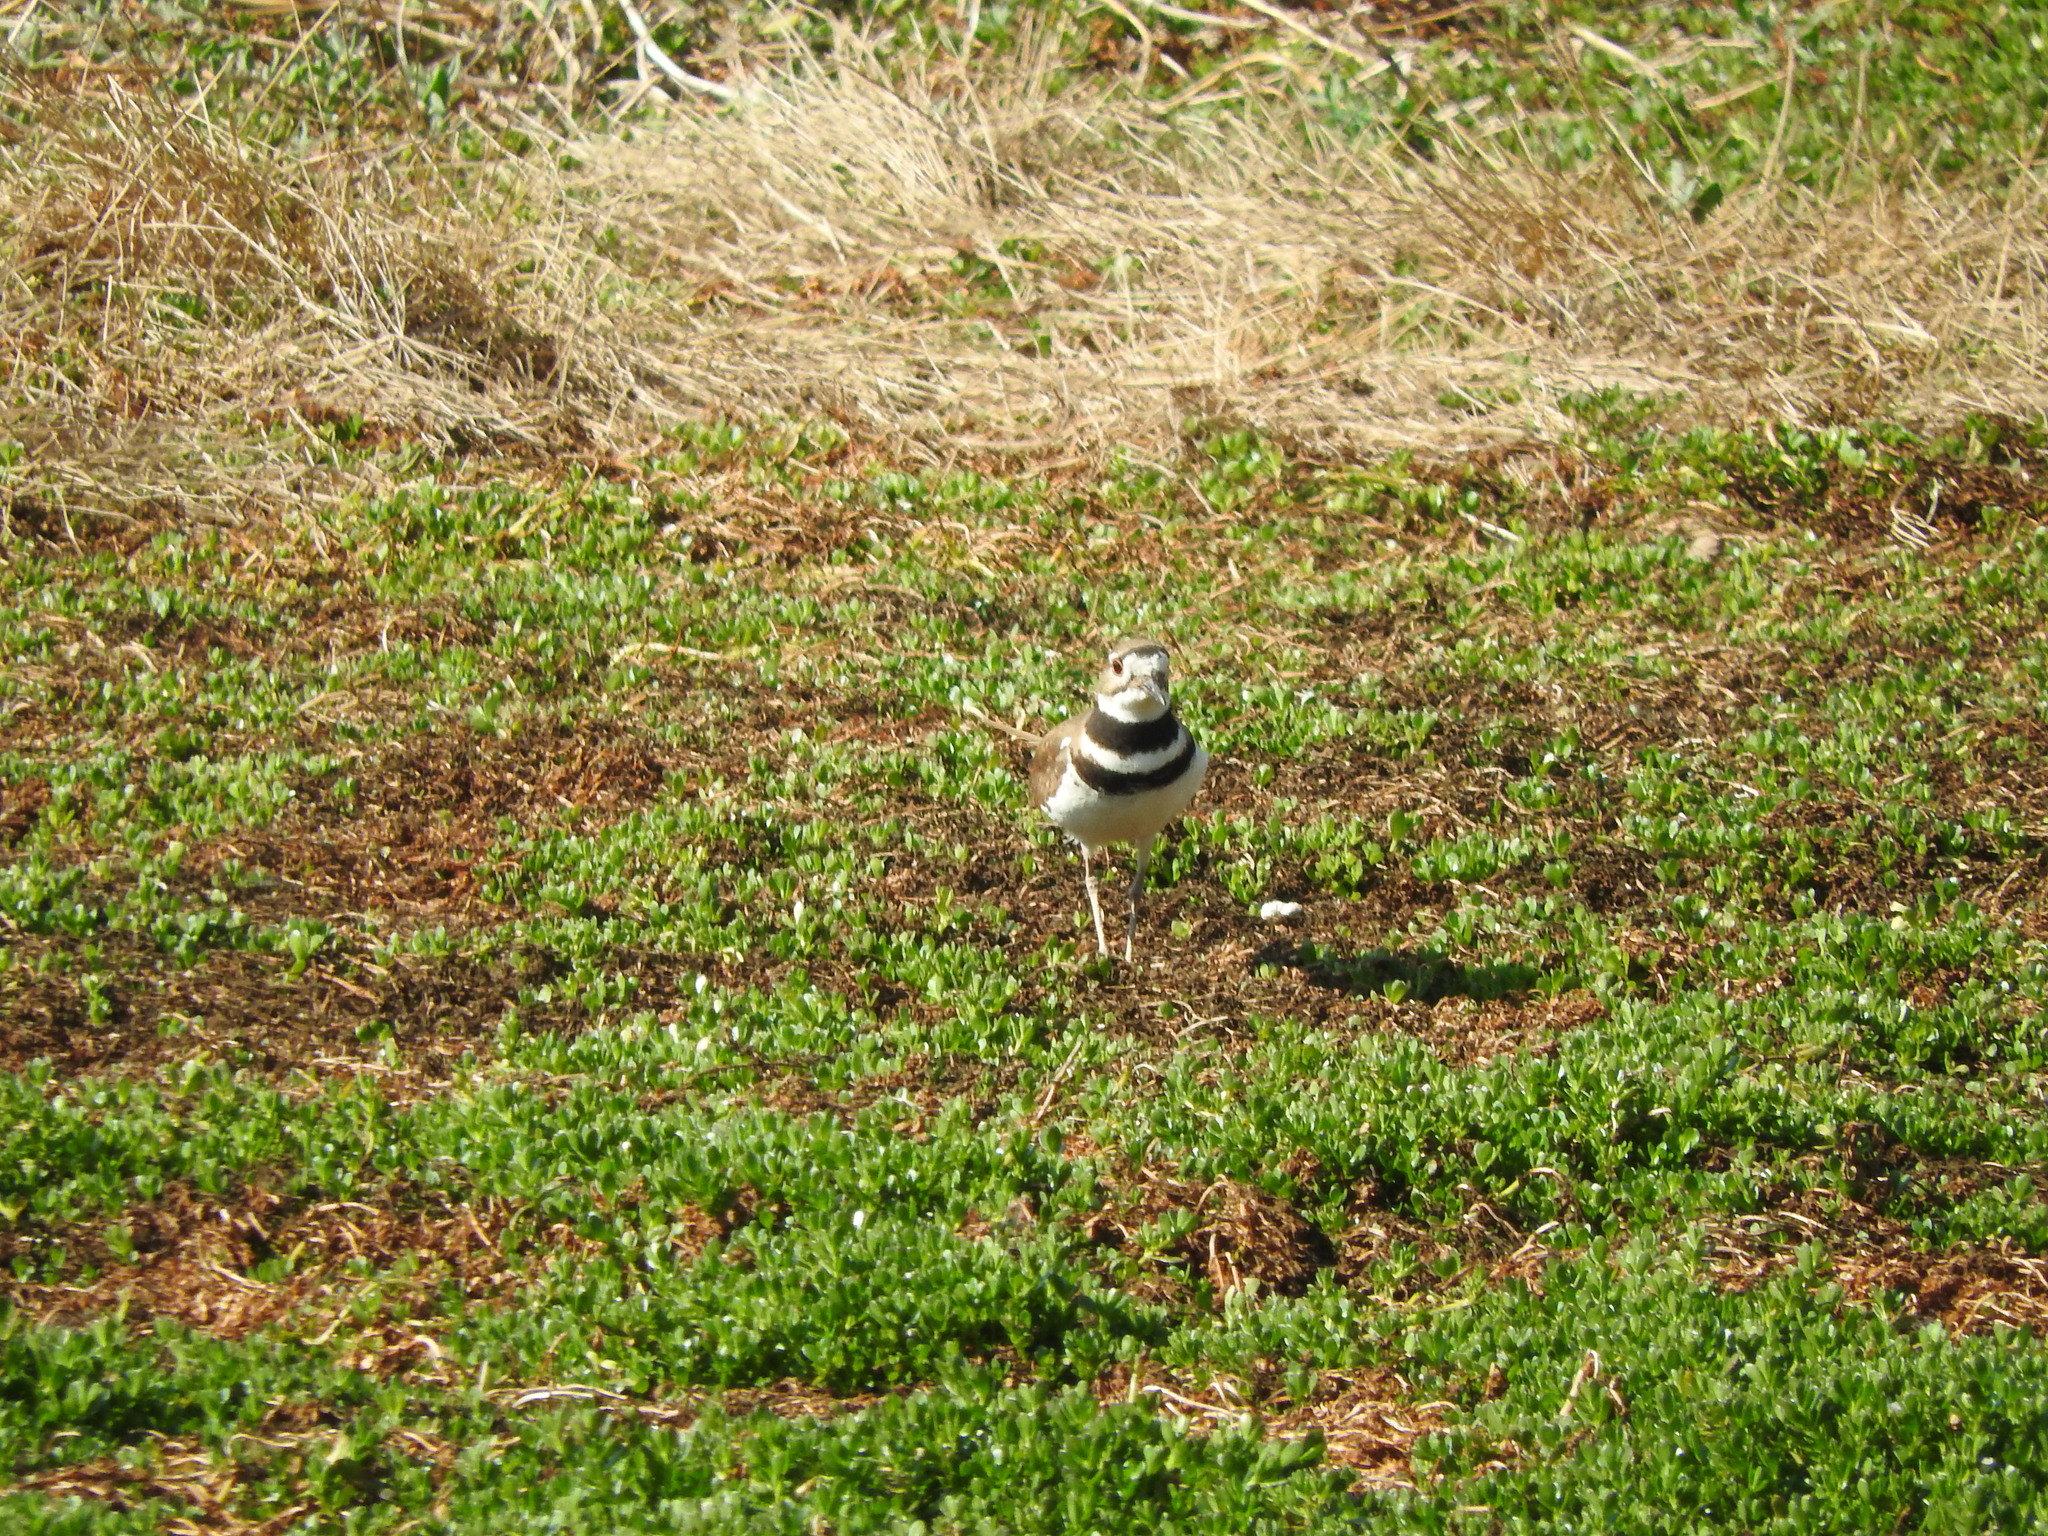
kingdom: Animalia
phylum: Chordata
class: Aves
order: Charadriiformes
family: Charadriidae
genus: Charadrius
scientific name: Charadrius vociferus
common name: Killdeer
